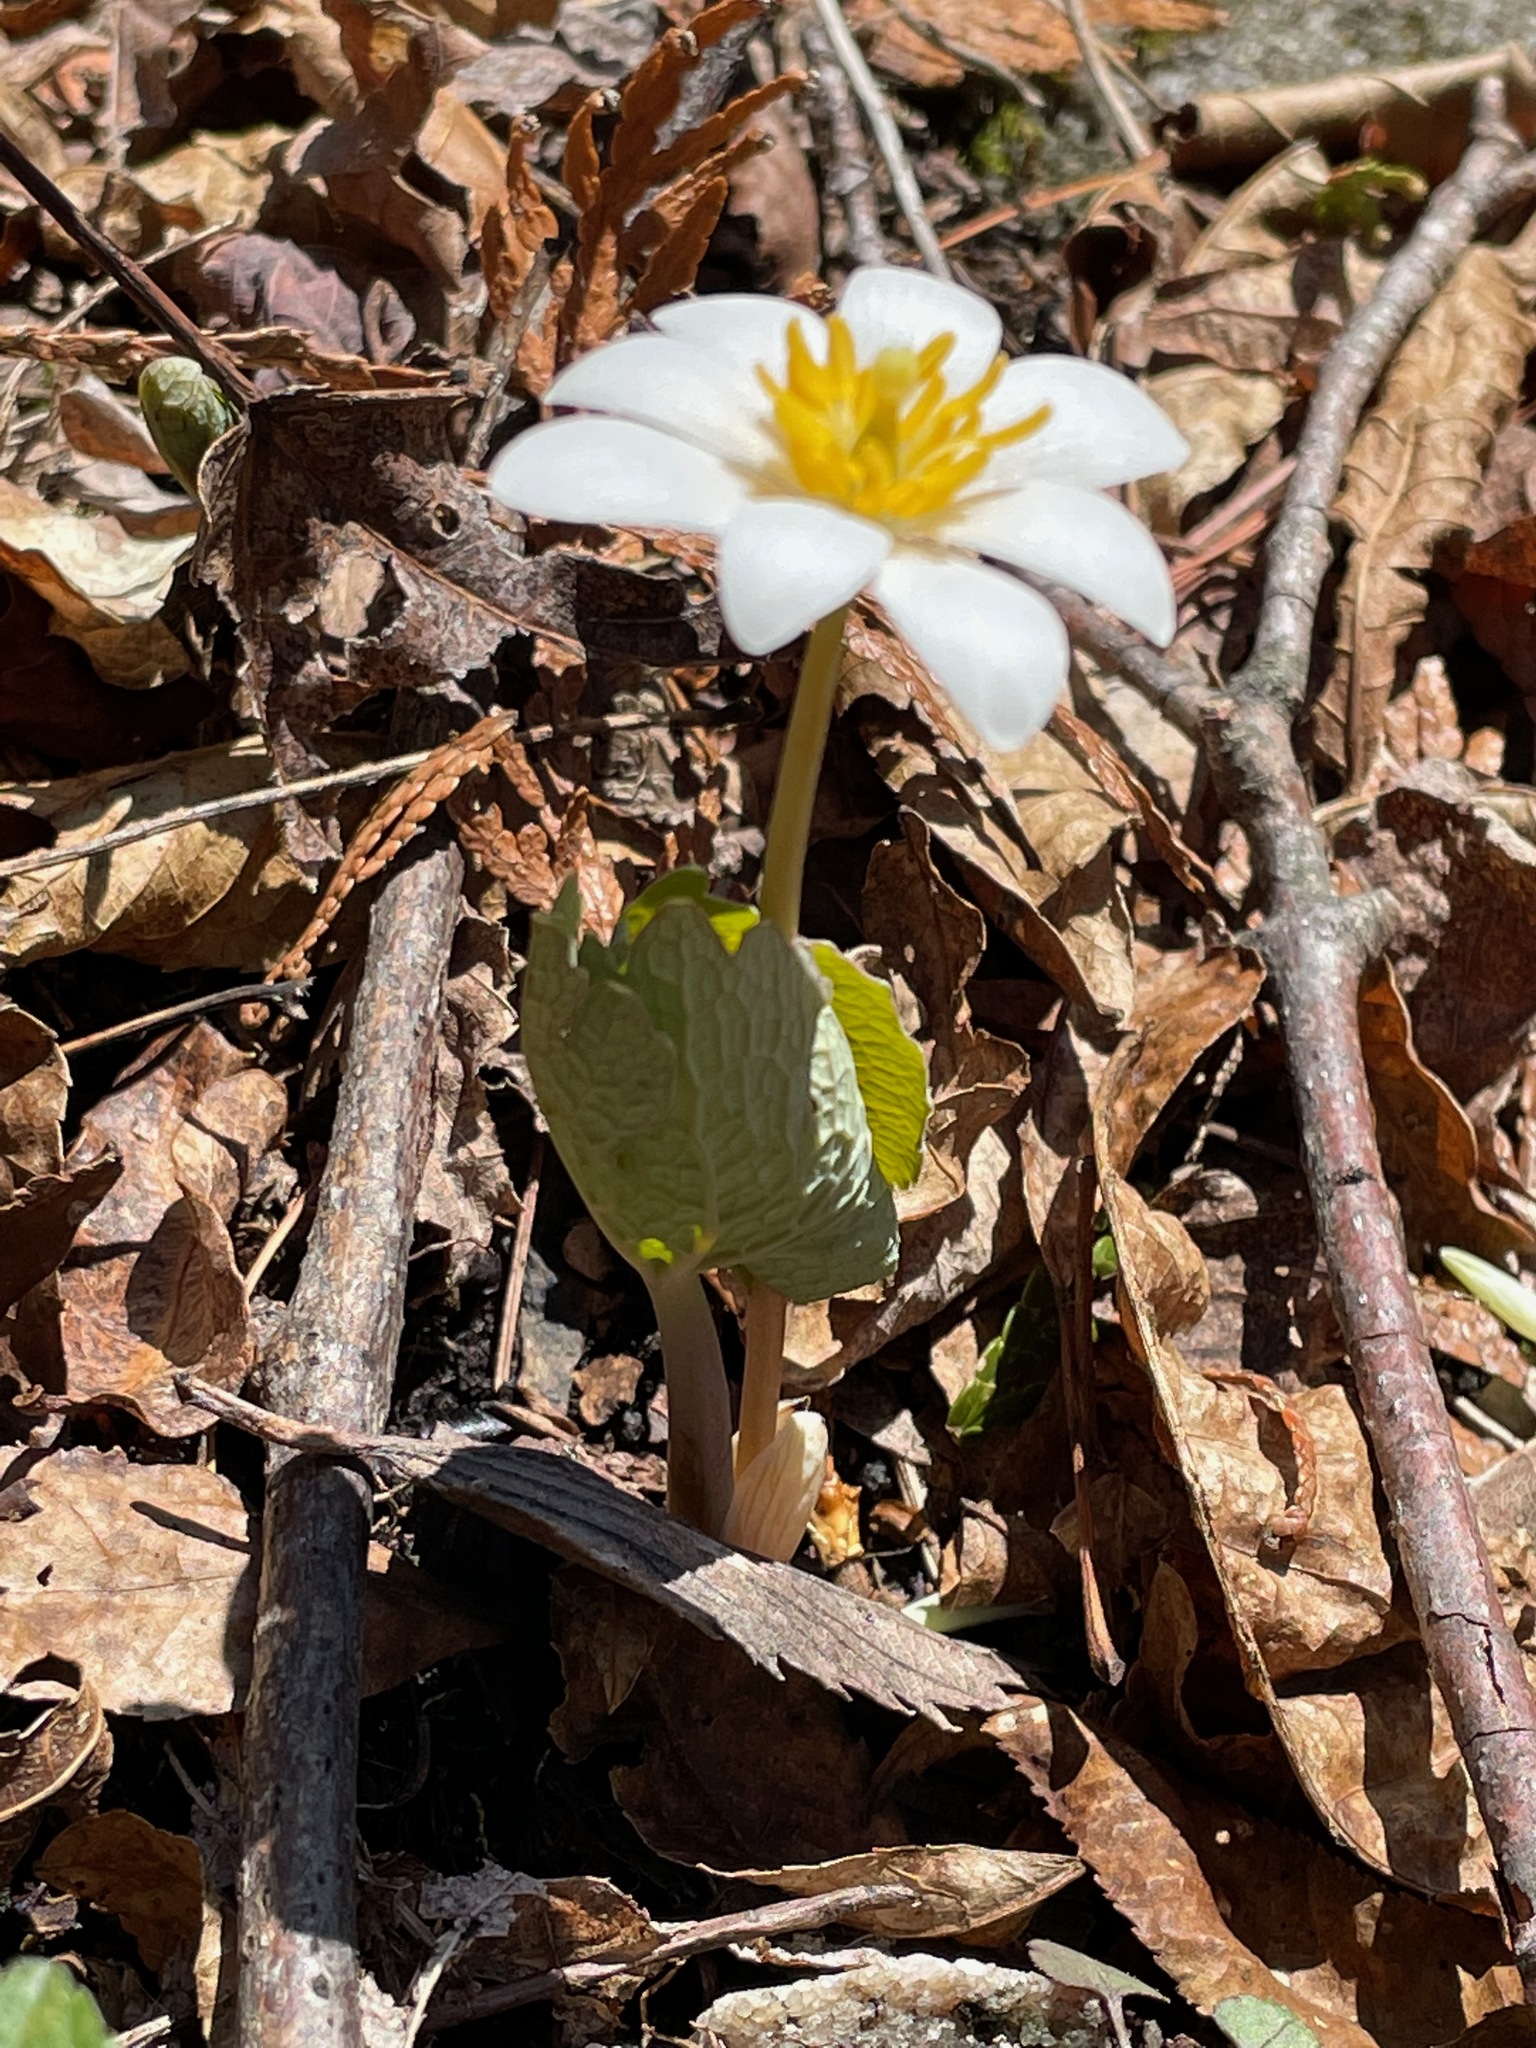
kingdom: Plantae
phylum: Tracheophyta
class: Magnoliopsida
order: Ranunculales
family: Papaveraceae
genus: Sanguinaria
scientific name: Sanguinaria canadensis
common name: Bloodroot
